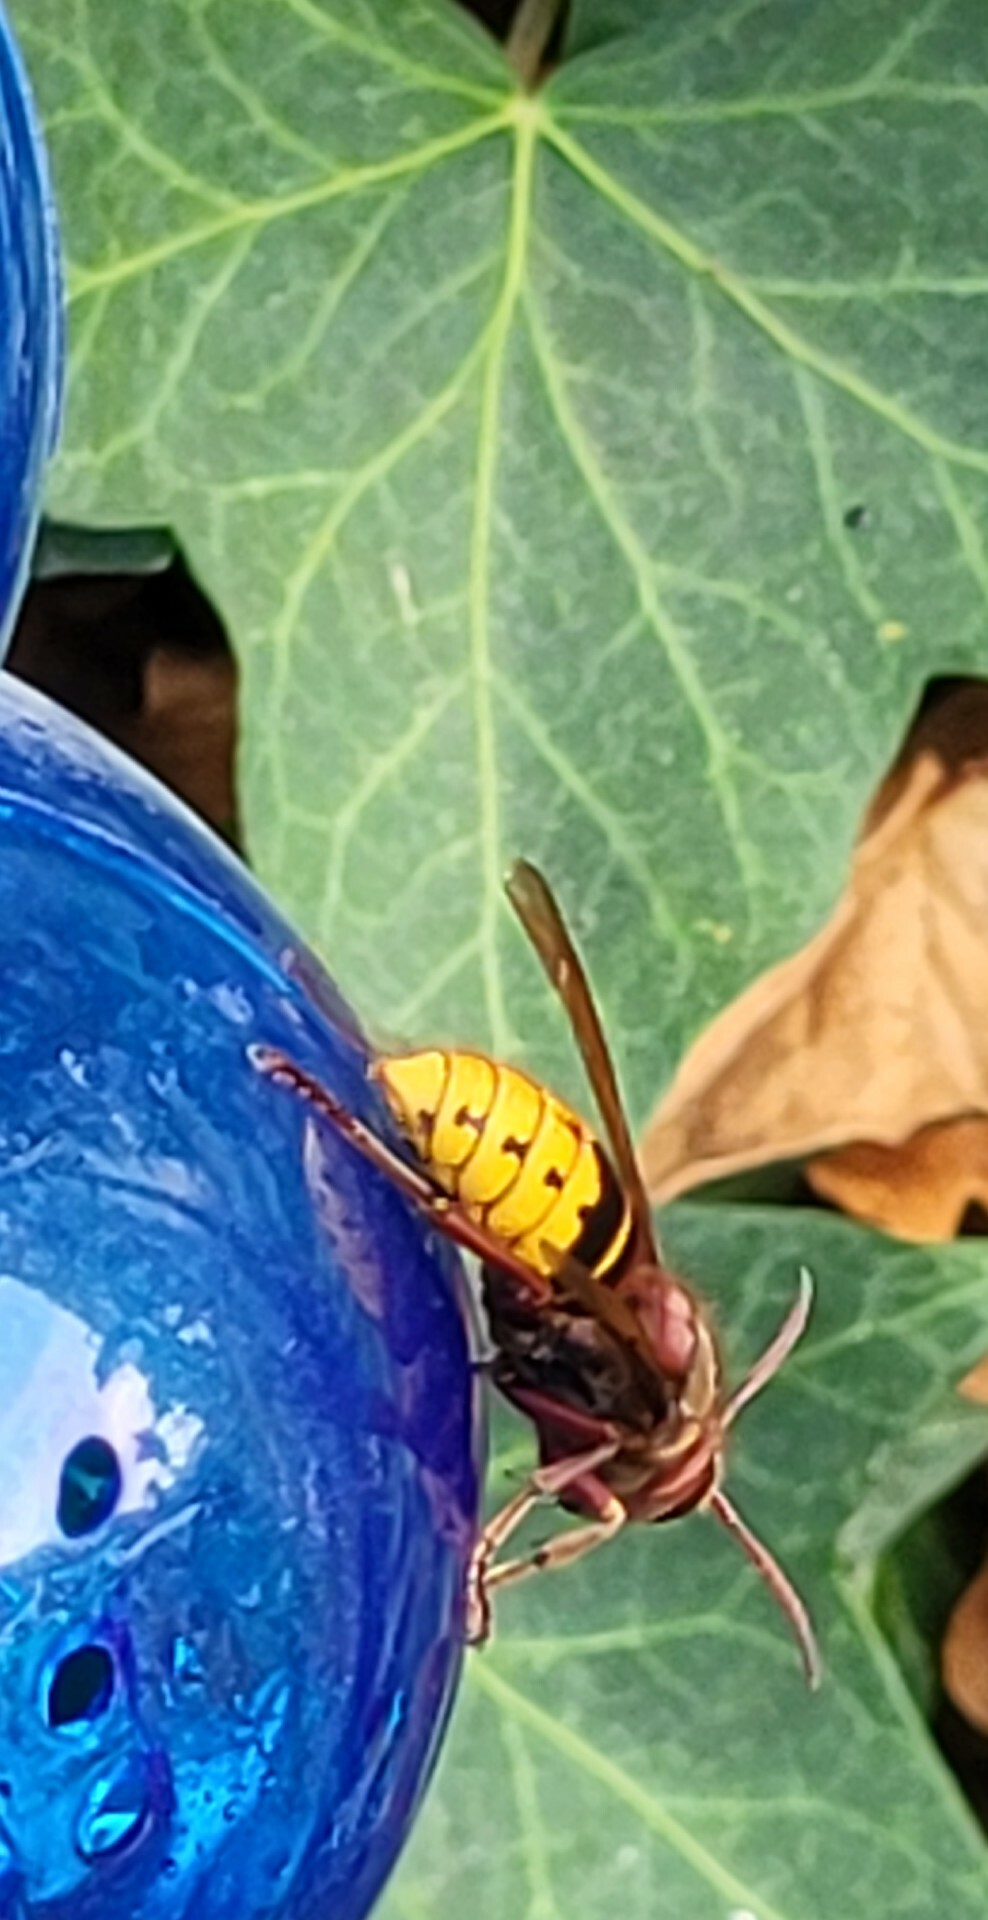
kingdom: Animalia
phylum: Arthropoda
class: Insecta
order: Hymenoptera
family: Vespidae
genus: Vespa
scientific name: Vespa crabro
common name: Hornet
